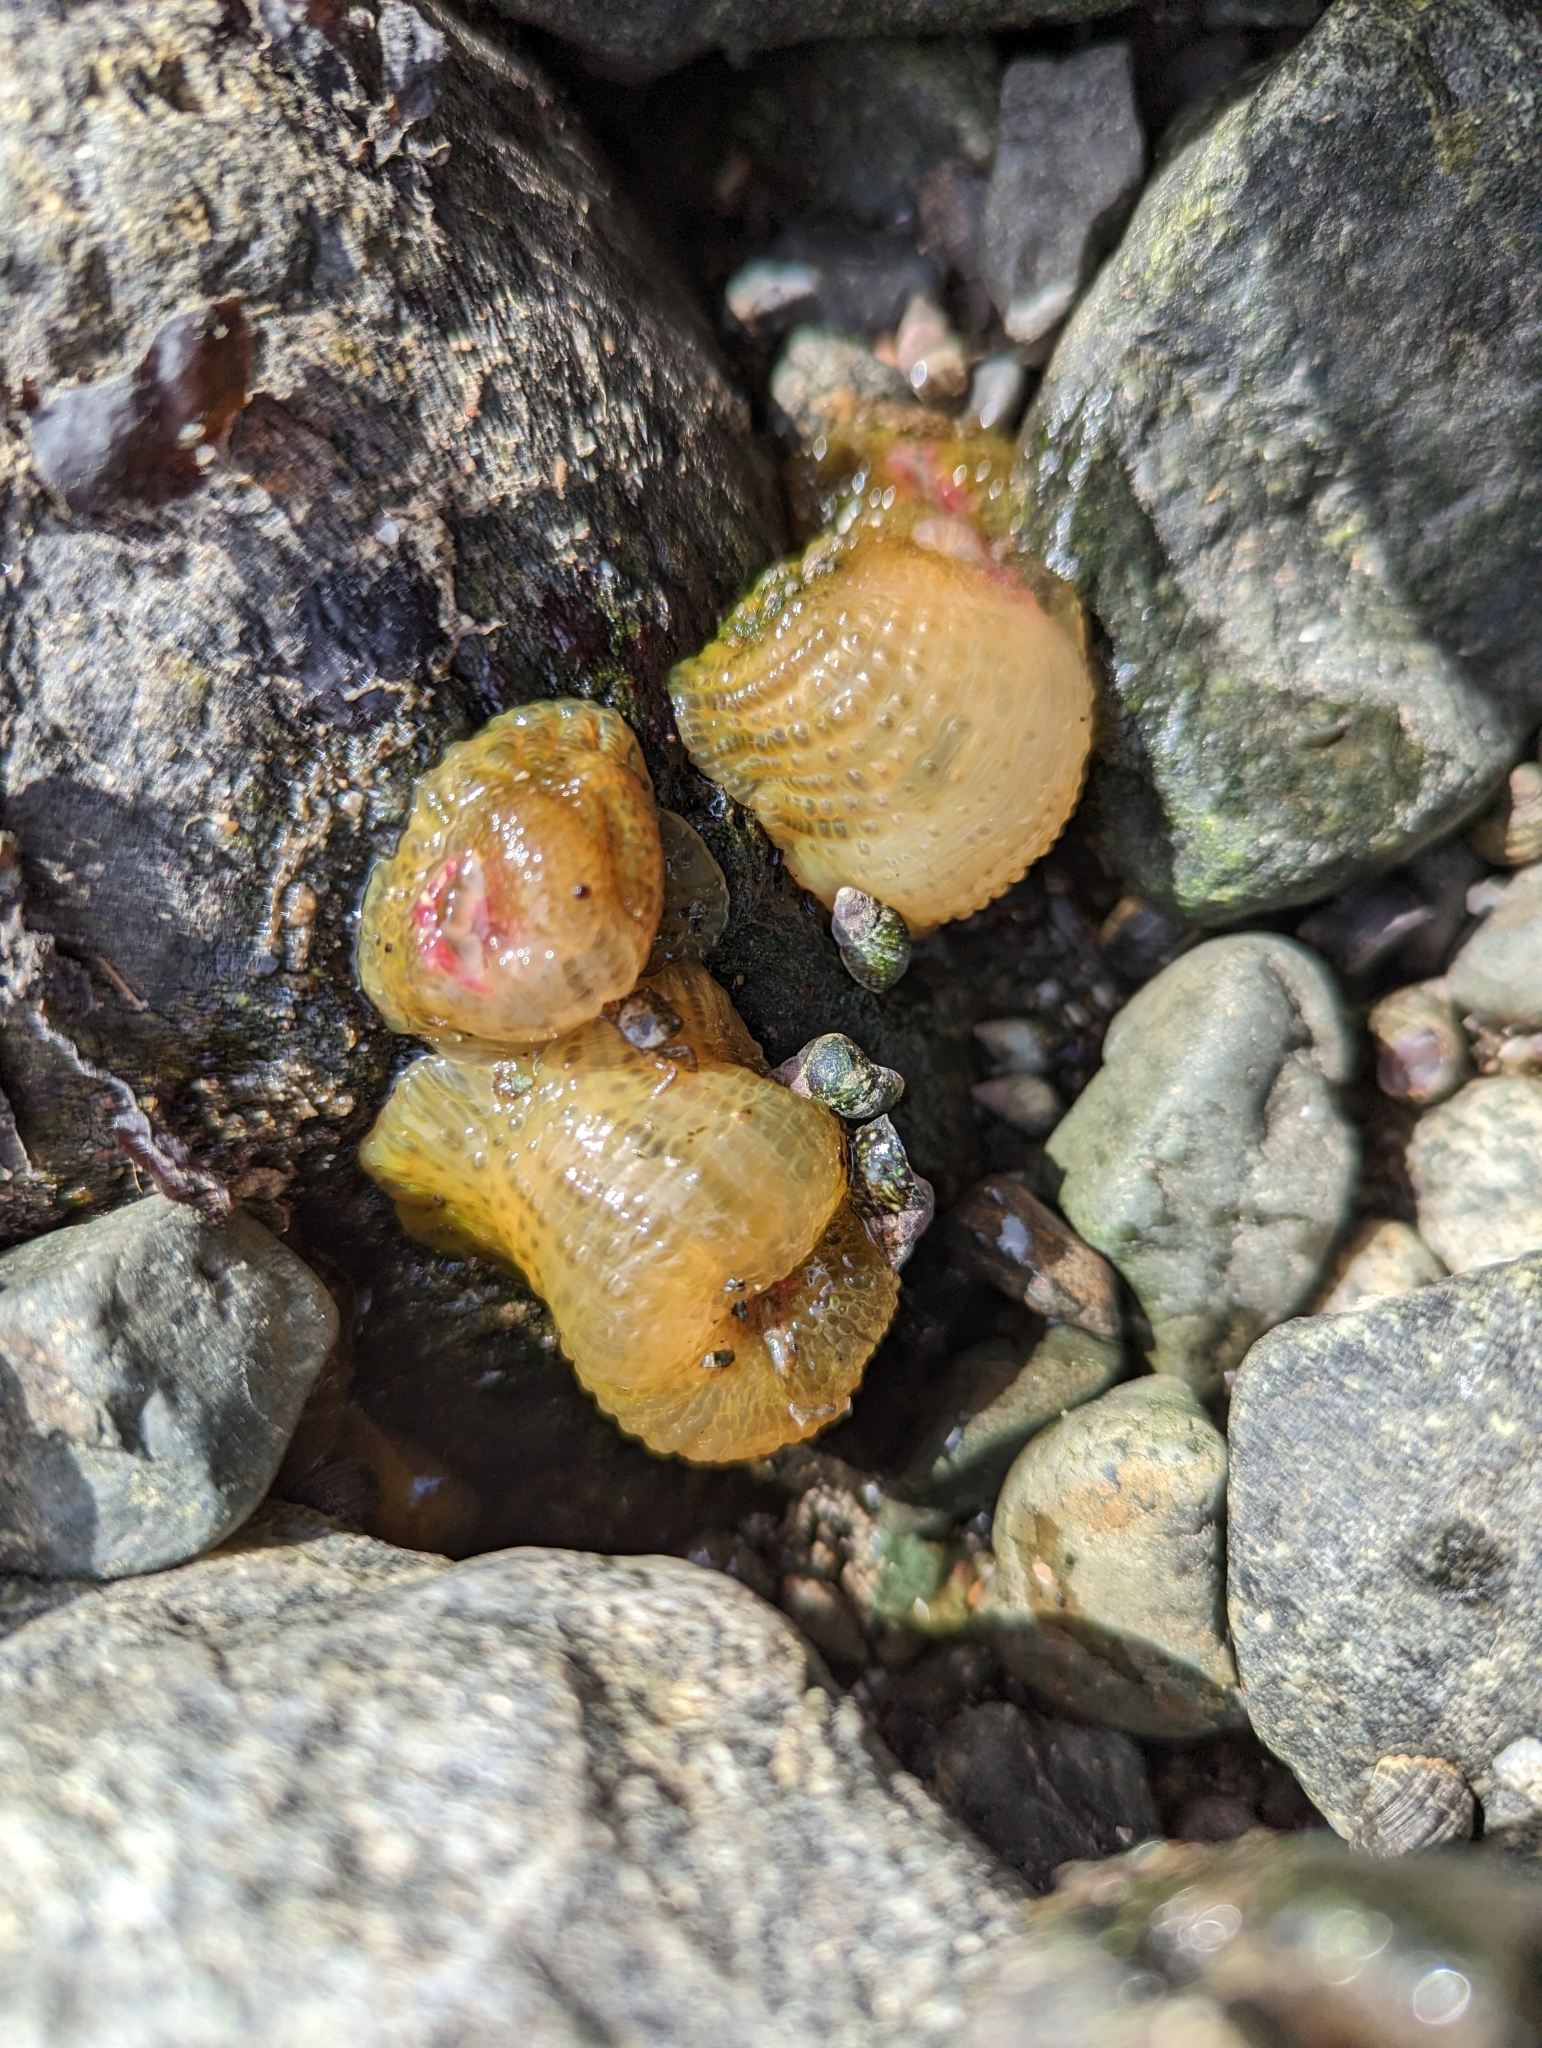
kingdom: Animalia
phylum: Cnidaria
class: Anthozoa
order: Actiniaria
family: Actiniidae
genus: Anthopleura
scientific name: Anthopleura elegantissima
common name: Clonal anemone
